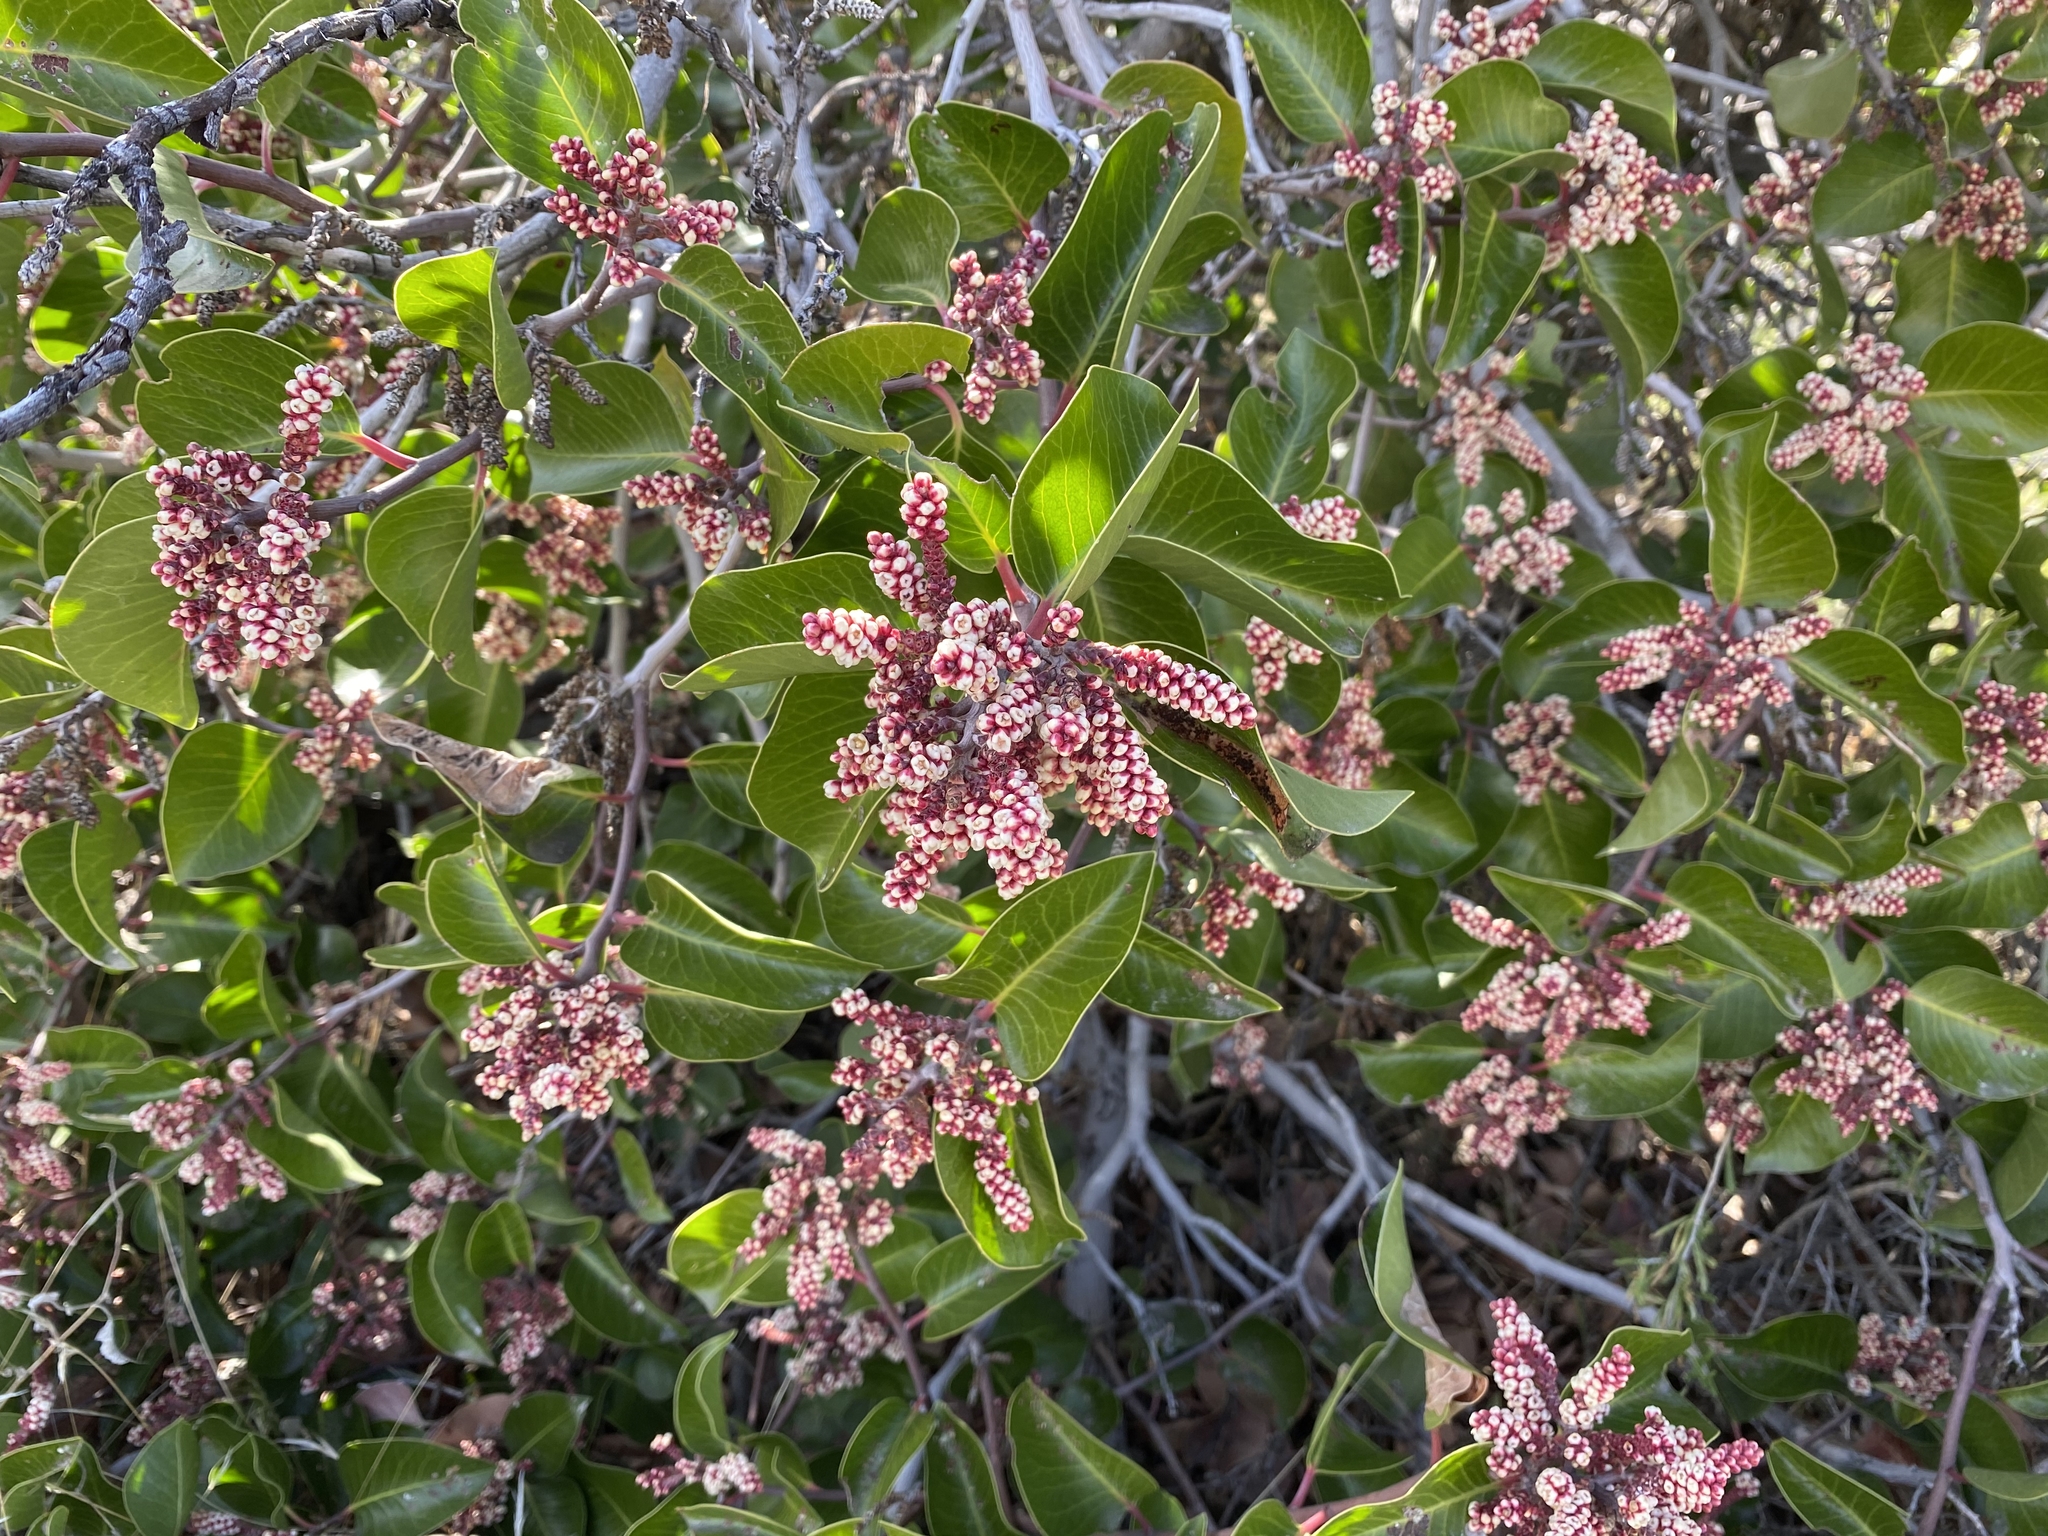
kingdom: Plantae
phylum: Tracheophyta
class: Magnoliopsida
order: Sapindales
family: Anacardiaceae
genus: Rhus
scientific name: Rhus ovata
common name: Sugar sumac
